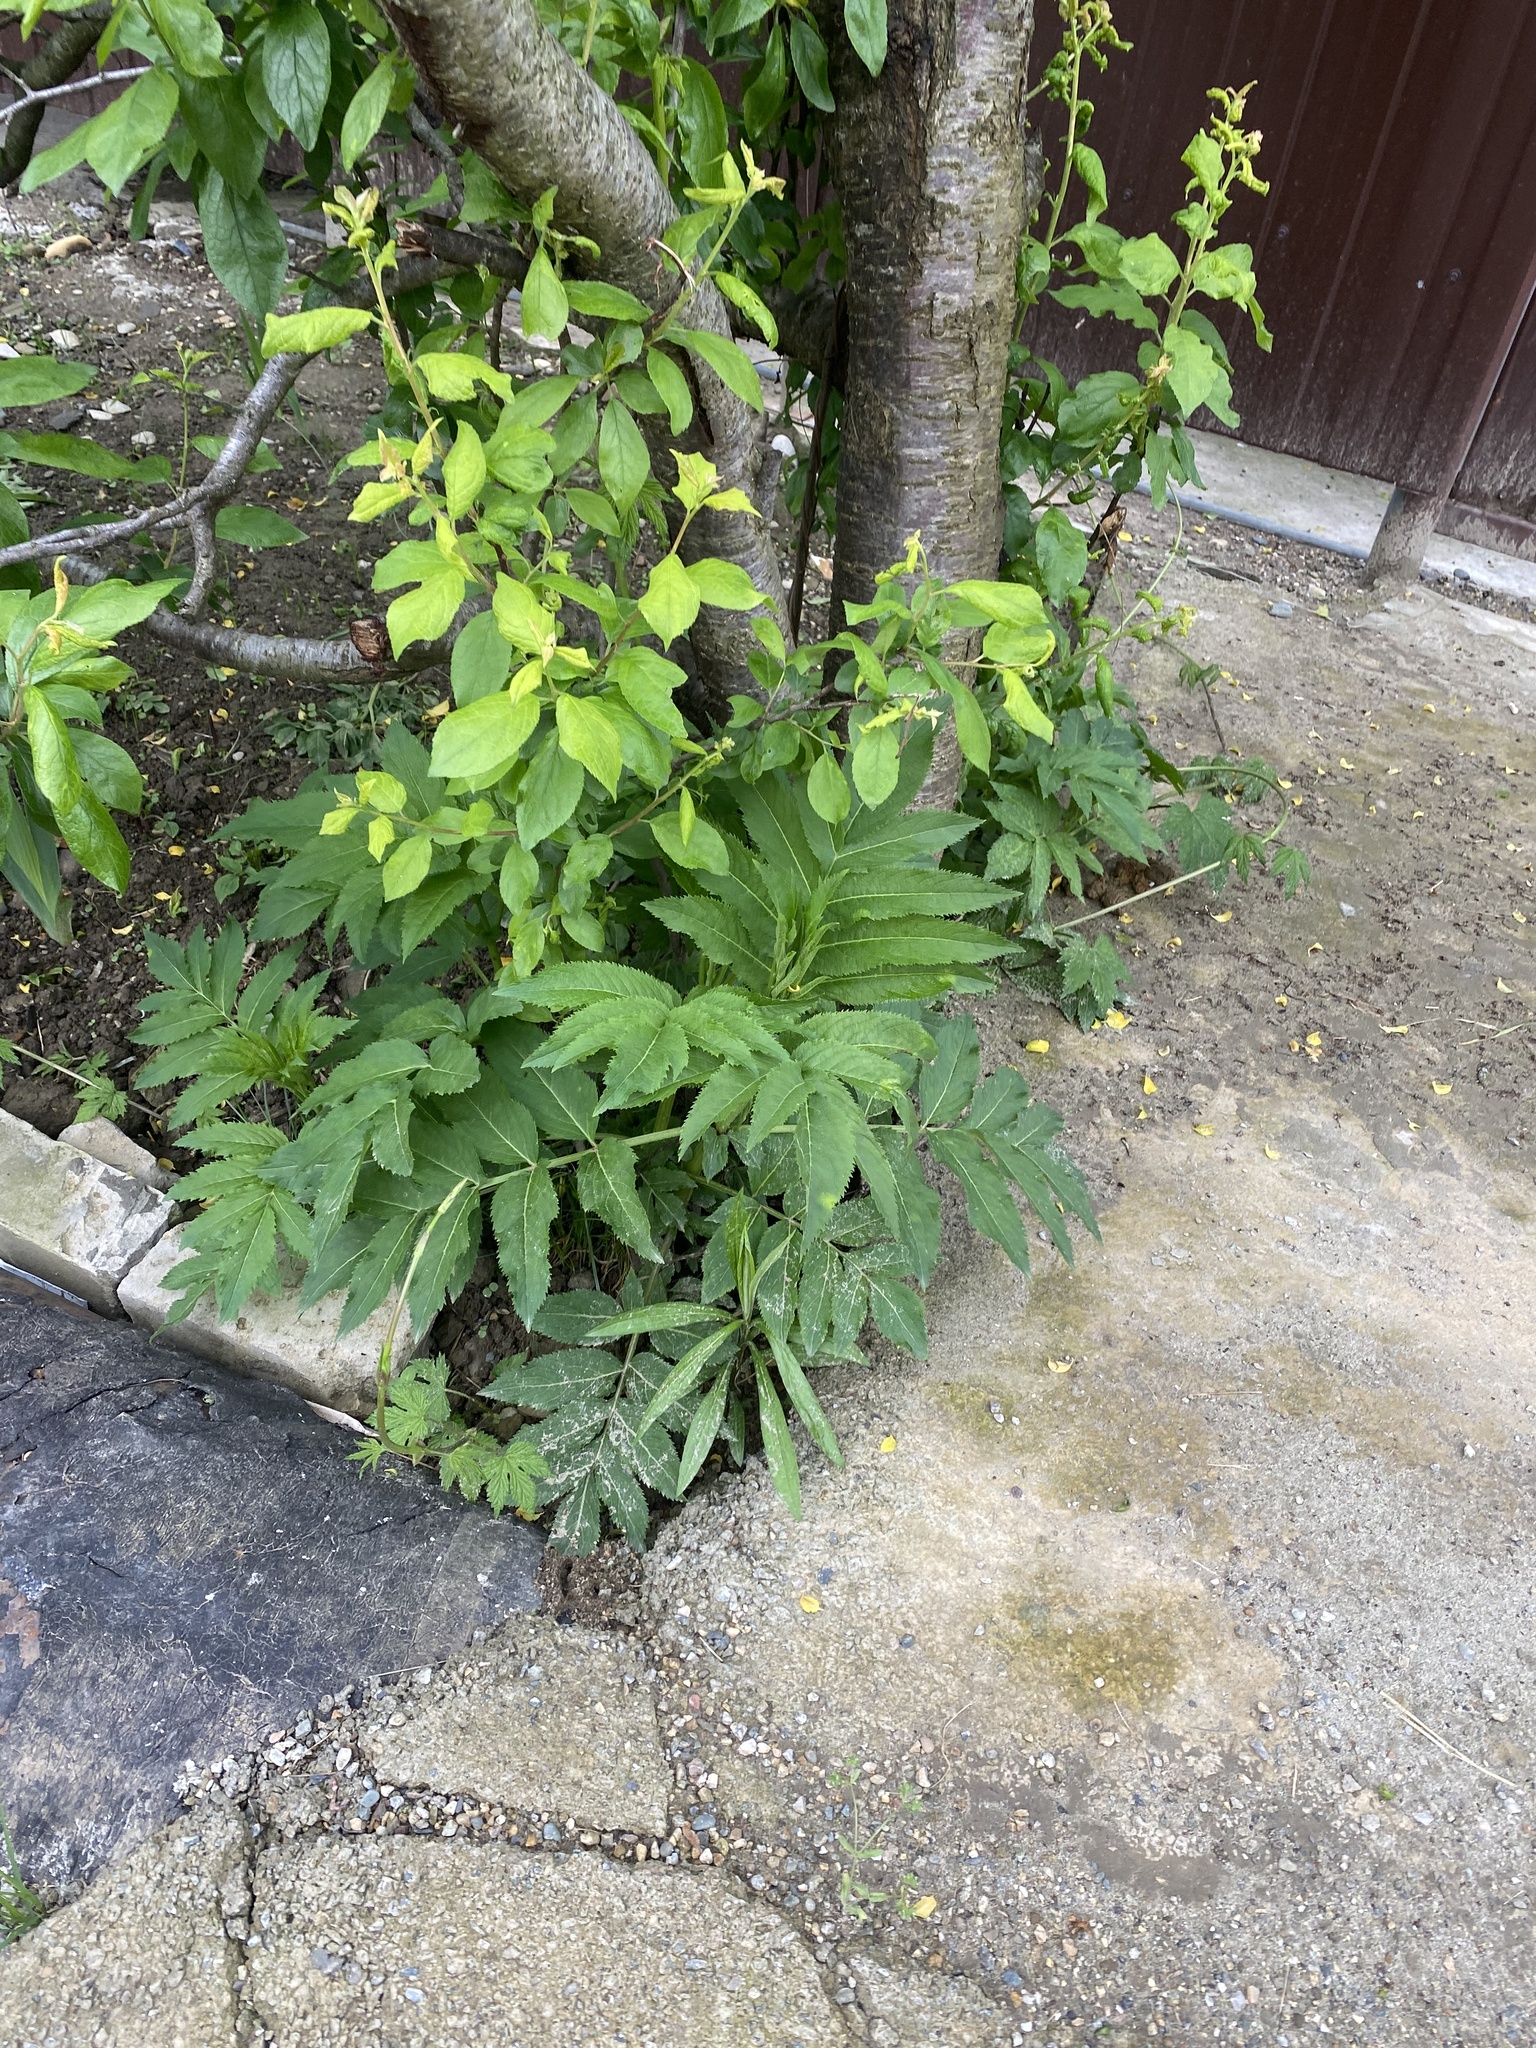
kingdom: Plantae
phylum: Tracheophyta
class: Magnoliopsida
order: Dipsacales
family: Viburnaceae
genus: Sambucus
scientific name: Sambucus ebulus
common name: Dwarf elder
